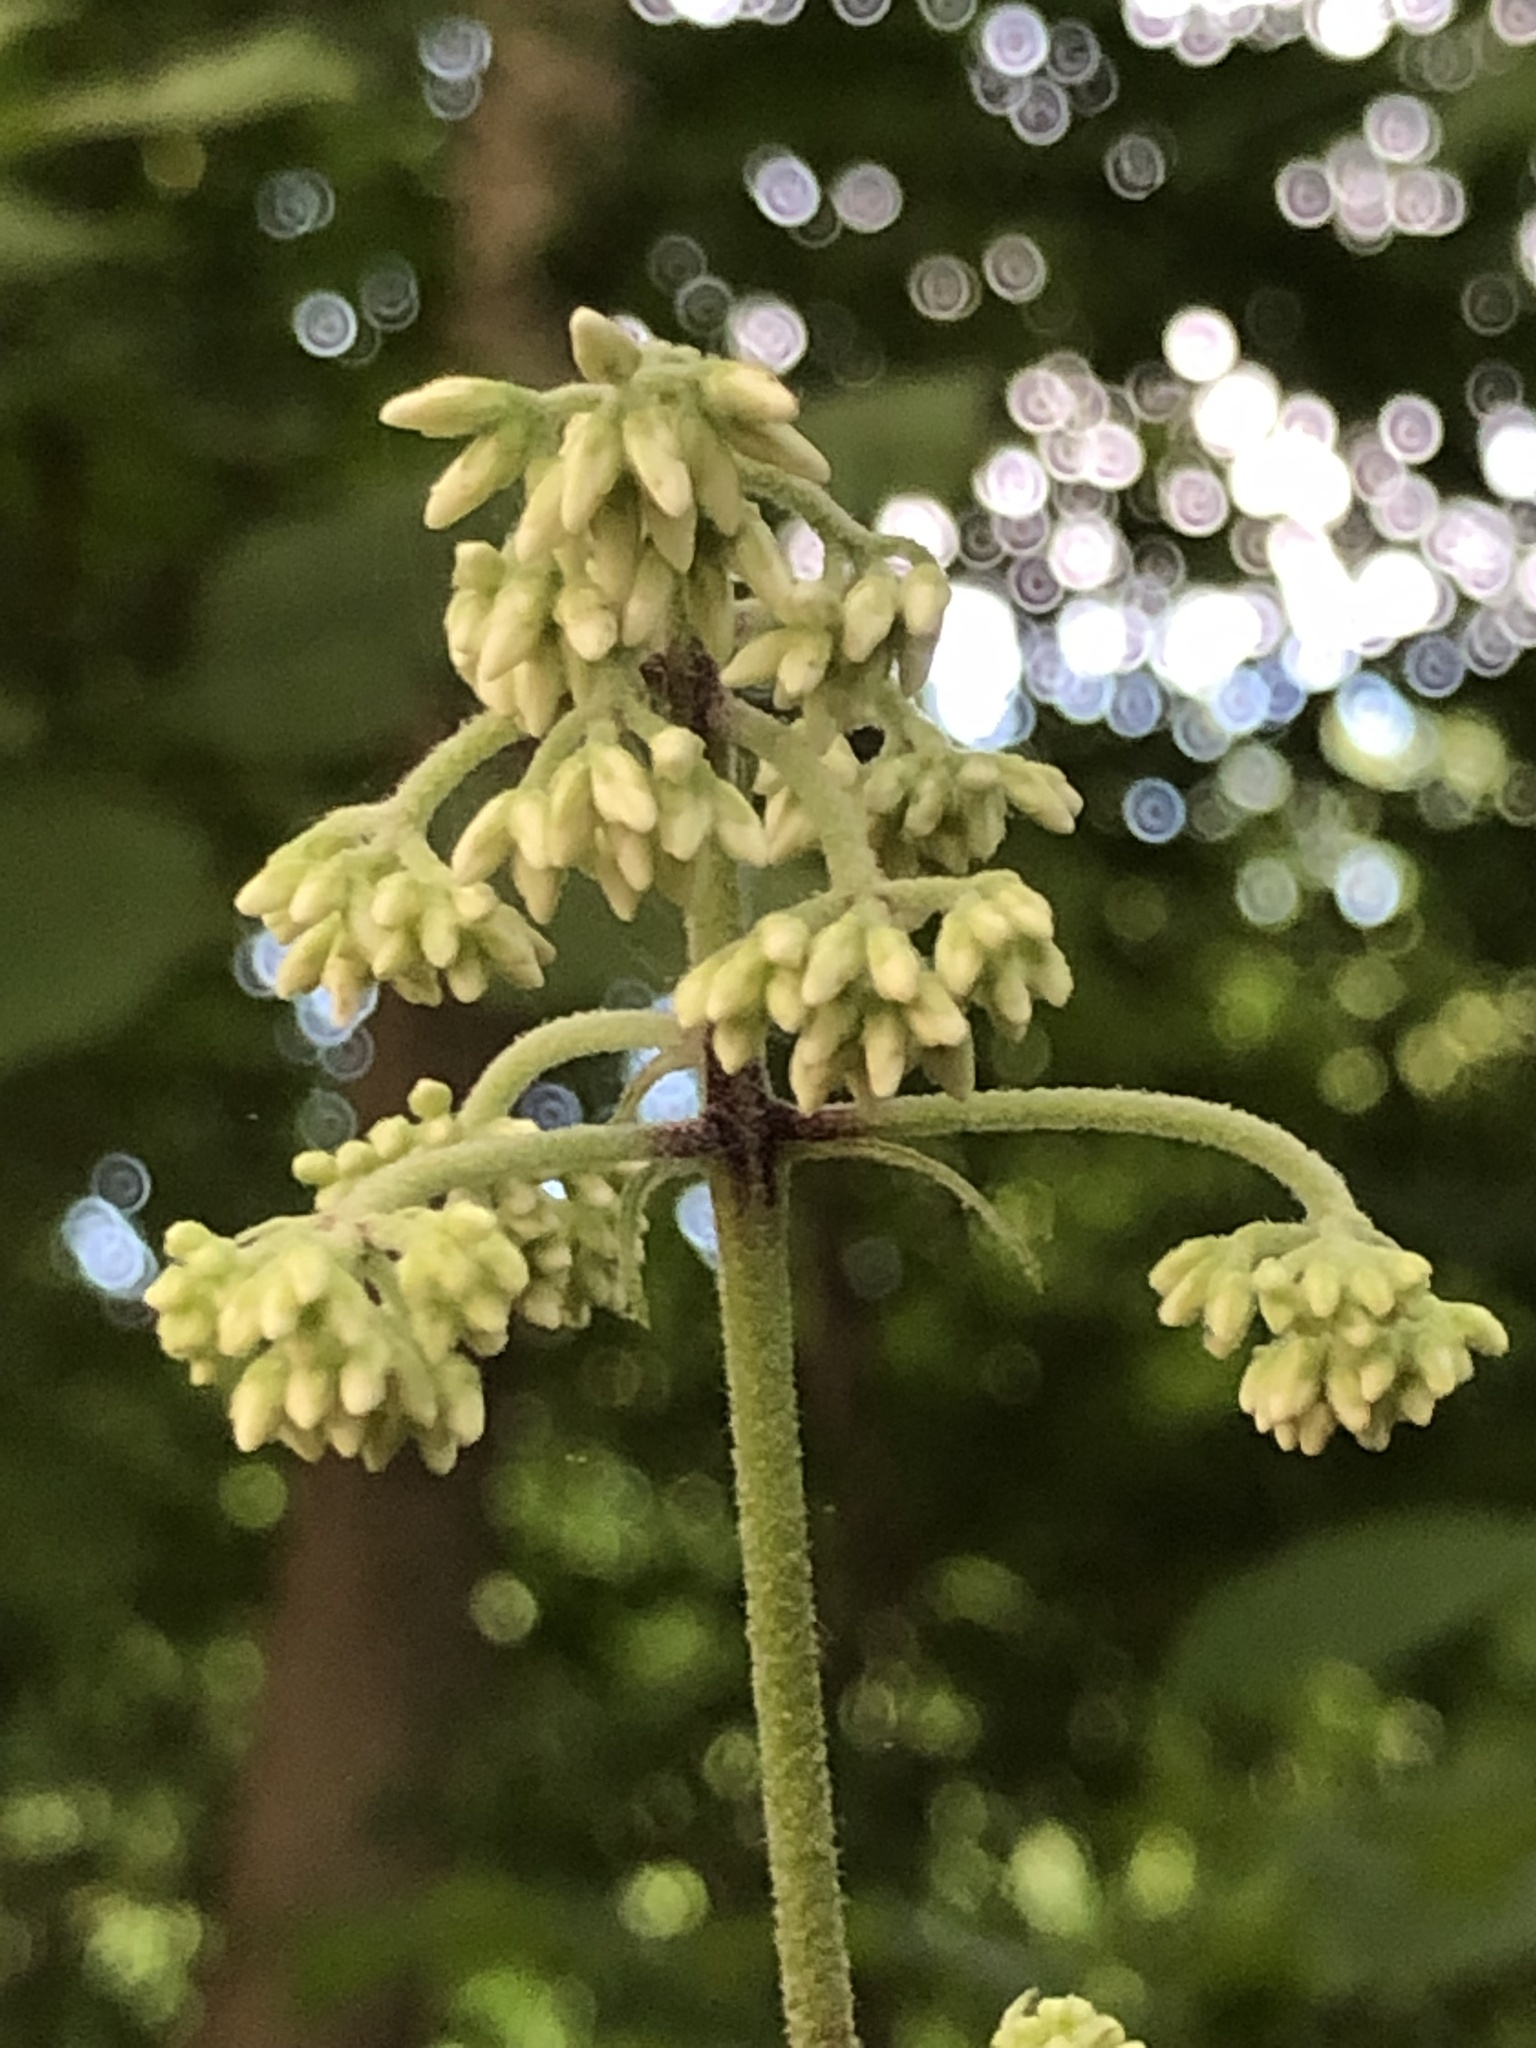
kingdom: Plantae
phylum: Tracheophyta
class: Magnoliopsida
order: Asterales
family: Asteraceae
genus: Eutrochium
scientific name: Eutrochium purpureum
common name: Gravelroot
